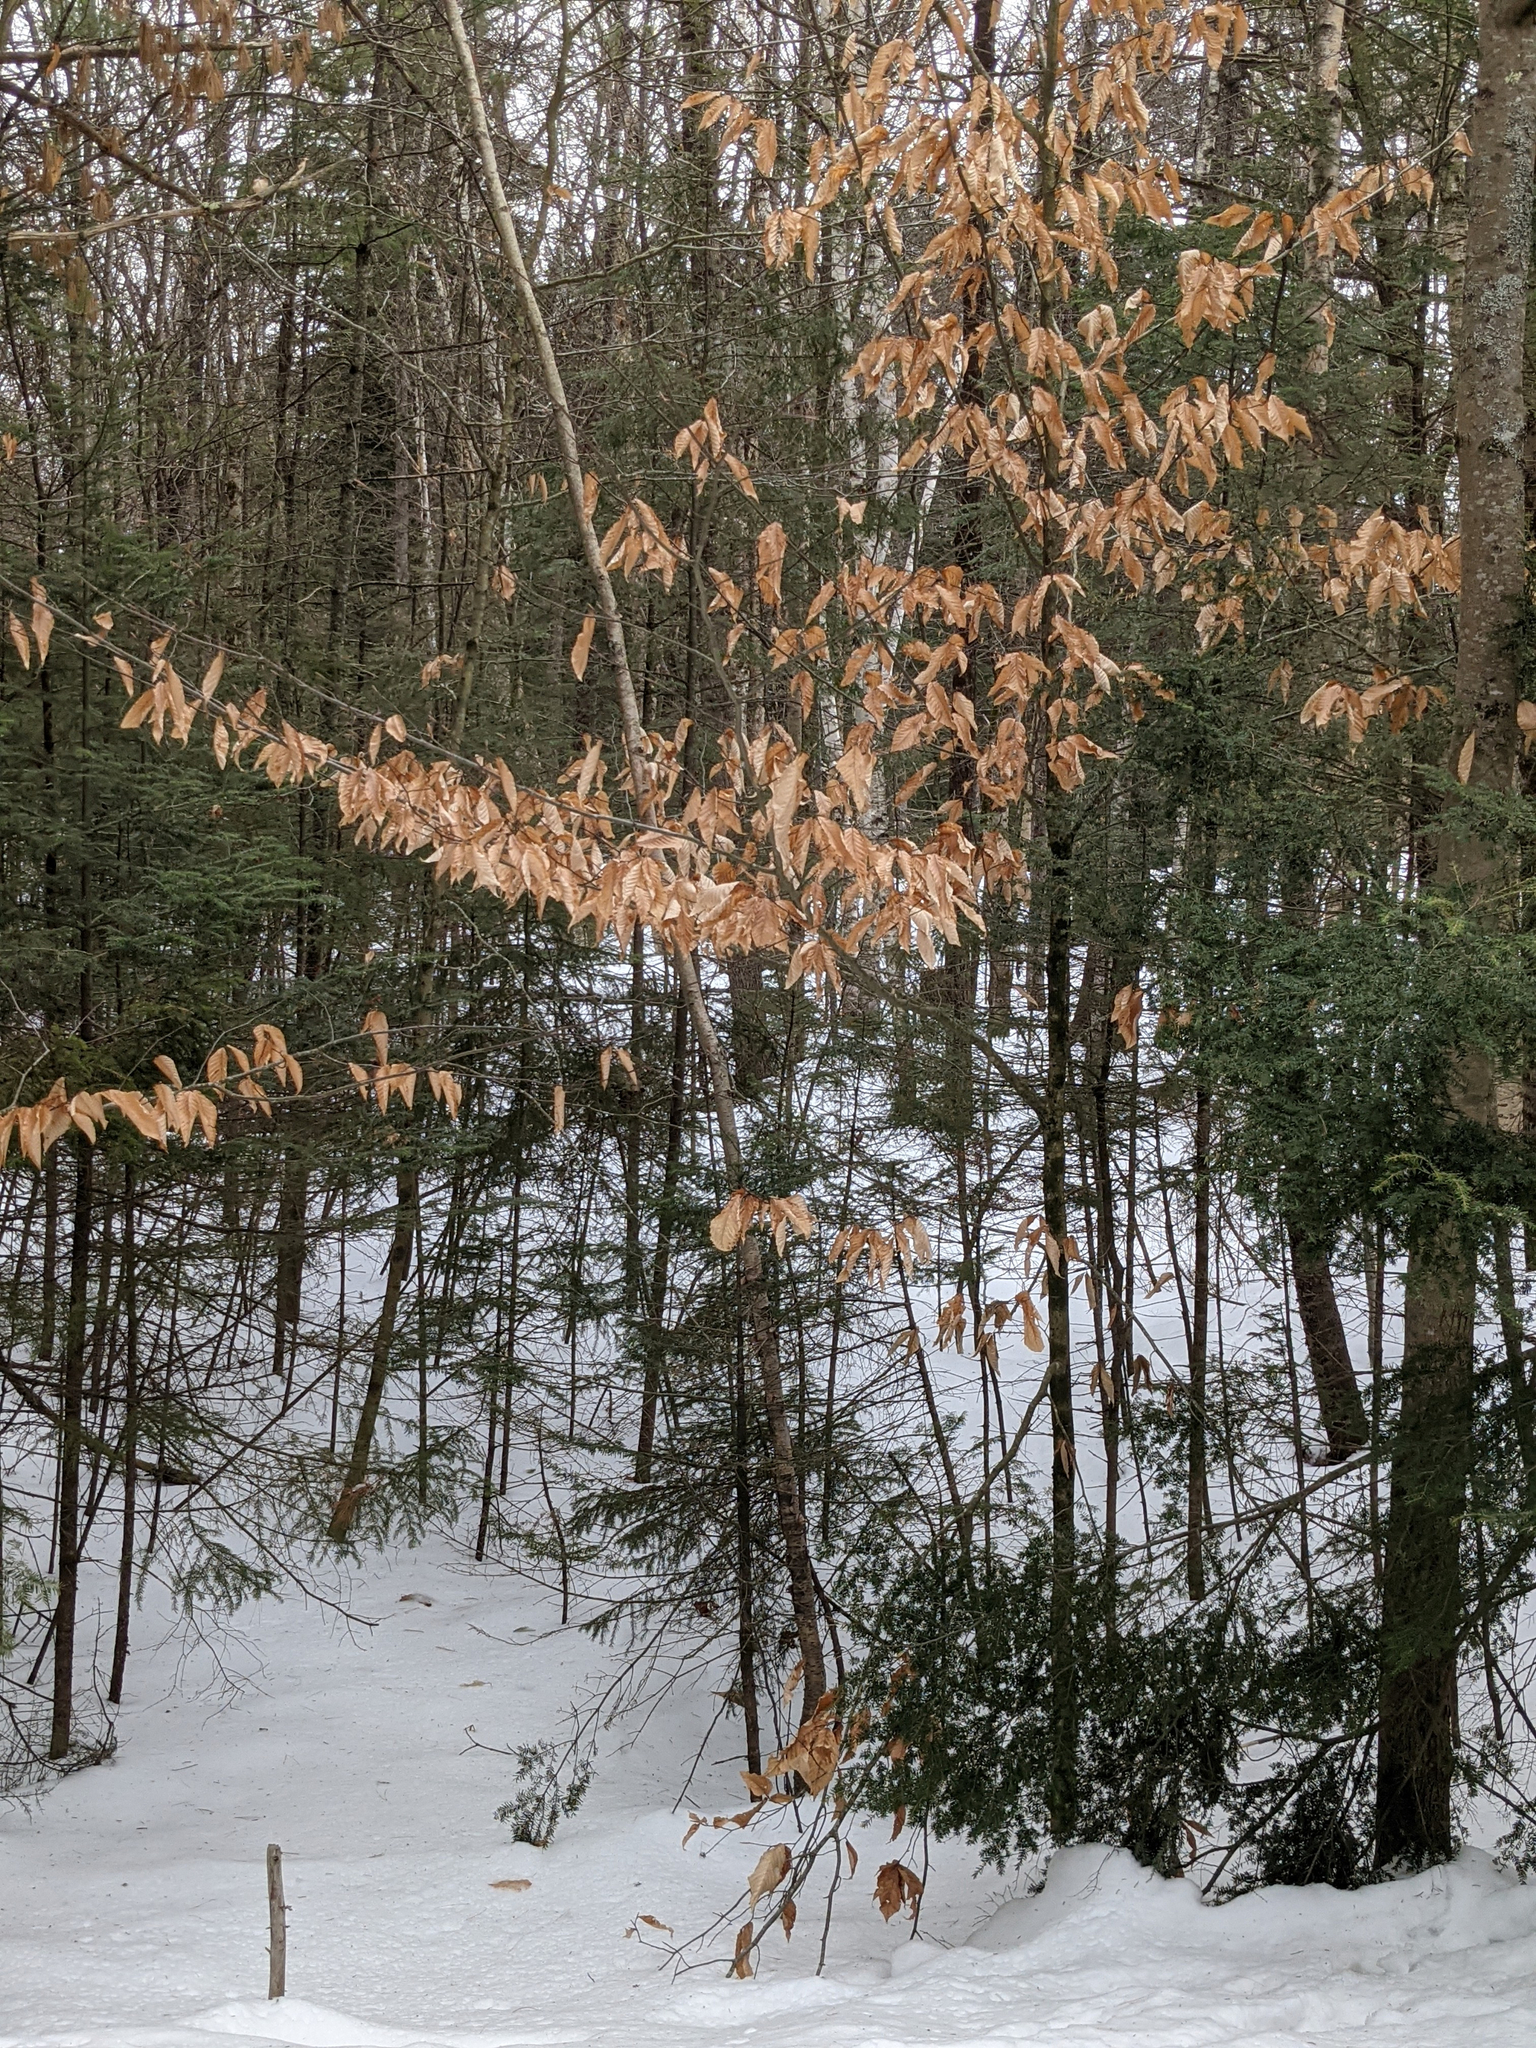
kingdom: Plantae
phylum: Tracheophyta
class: Magnoliopsida
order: Fagales
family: Fagaceae
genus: Fagus
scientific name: Fagus grandifolia
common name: American beech
